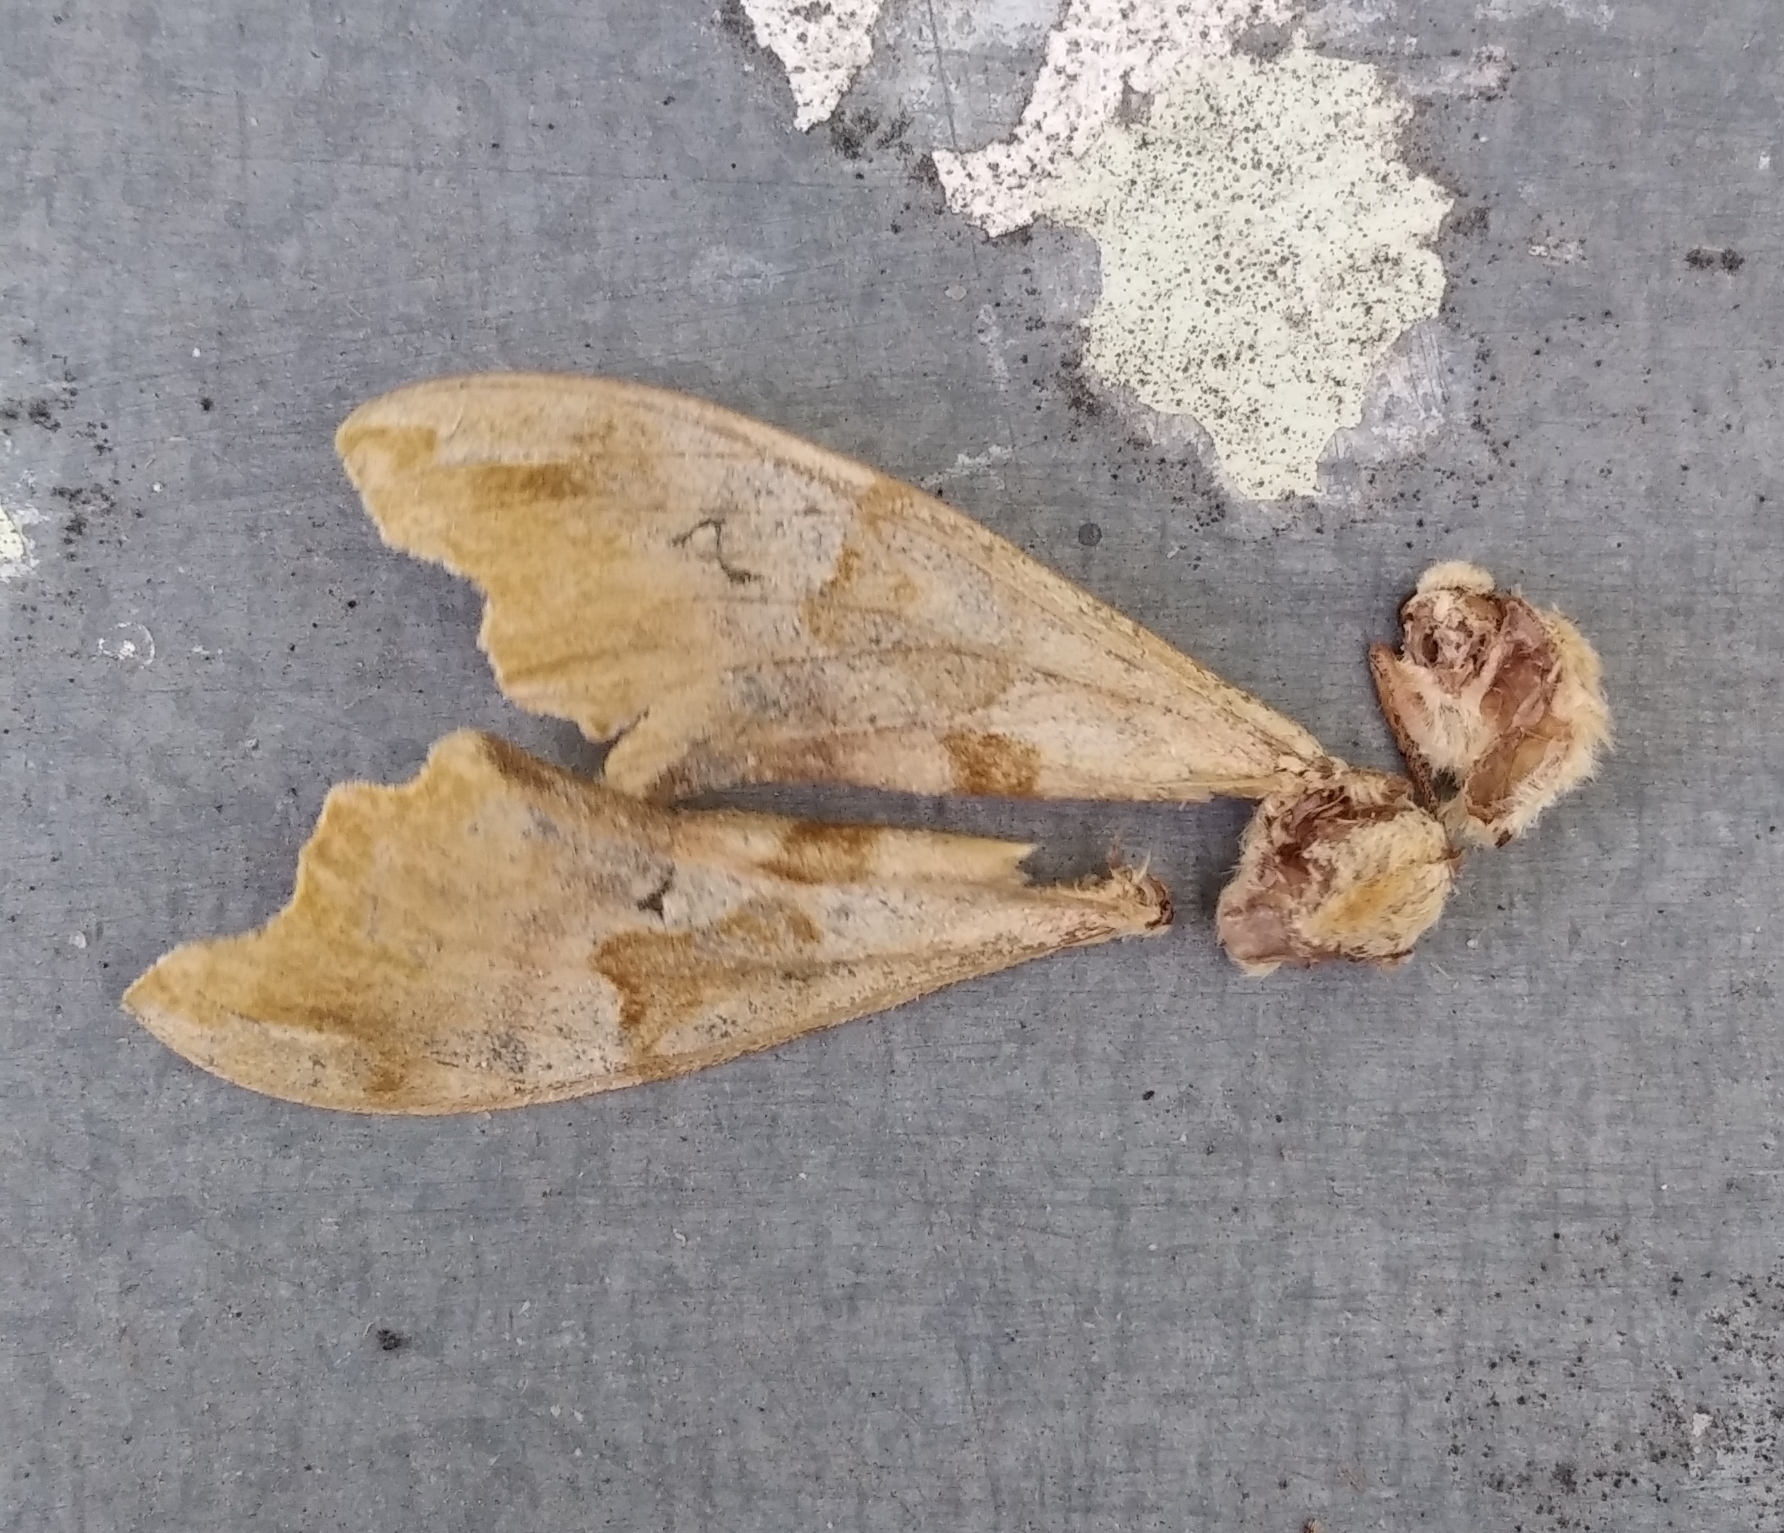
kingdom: Animalia
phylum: Arthropoda
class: Insecta
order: Lepidoptera
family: Sphingidae
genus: Mimas
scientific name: Mimas tiliae
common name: Lime hawk-moth
